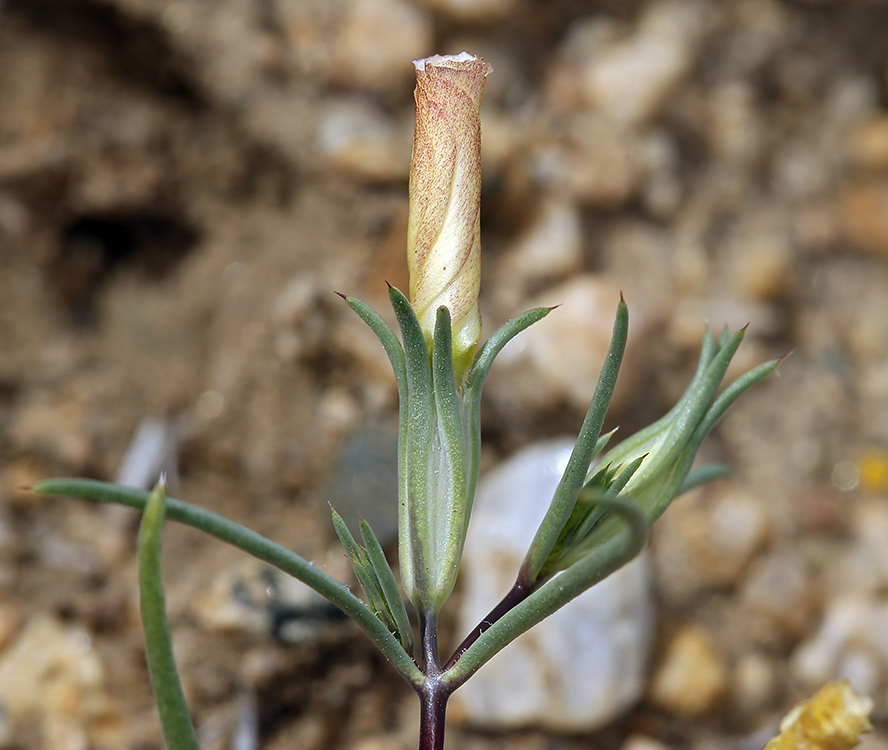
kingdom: Plantae
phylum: Tracheophyta
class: Magnoliopsida
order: Ericales
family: Polemoniaceae
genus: Linanthus
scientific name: Linanthus dichotomus
